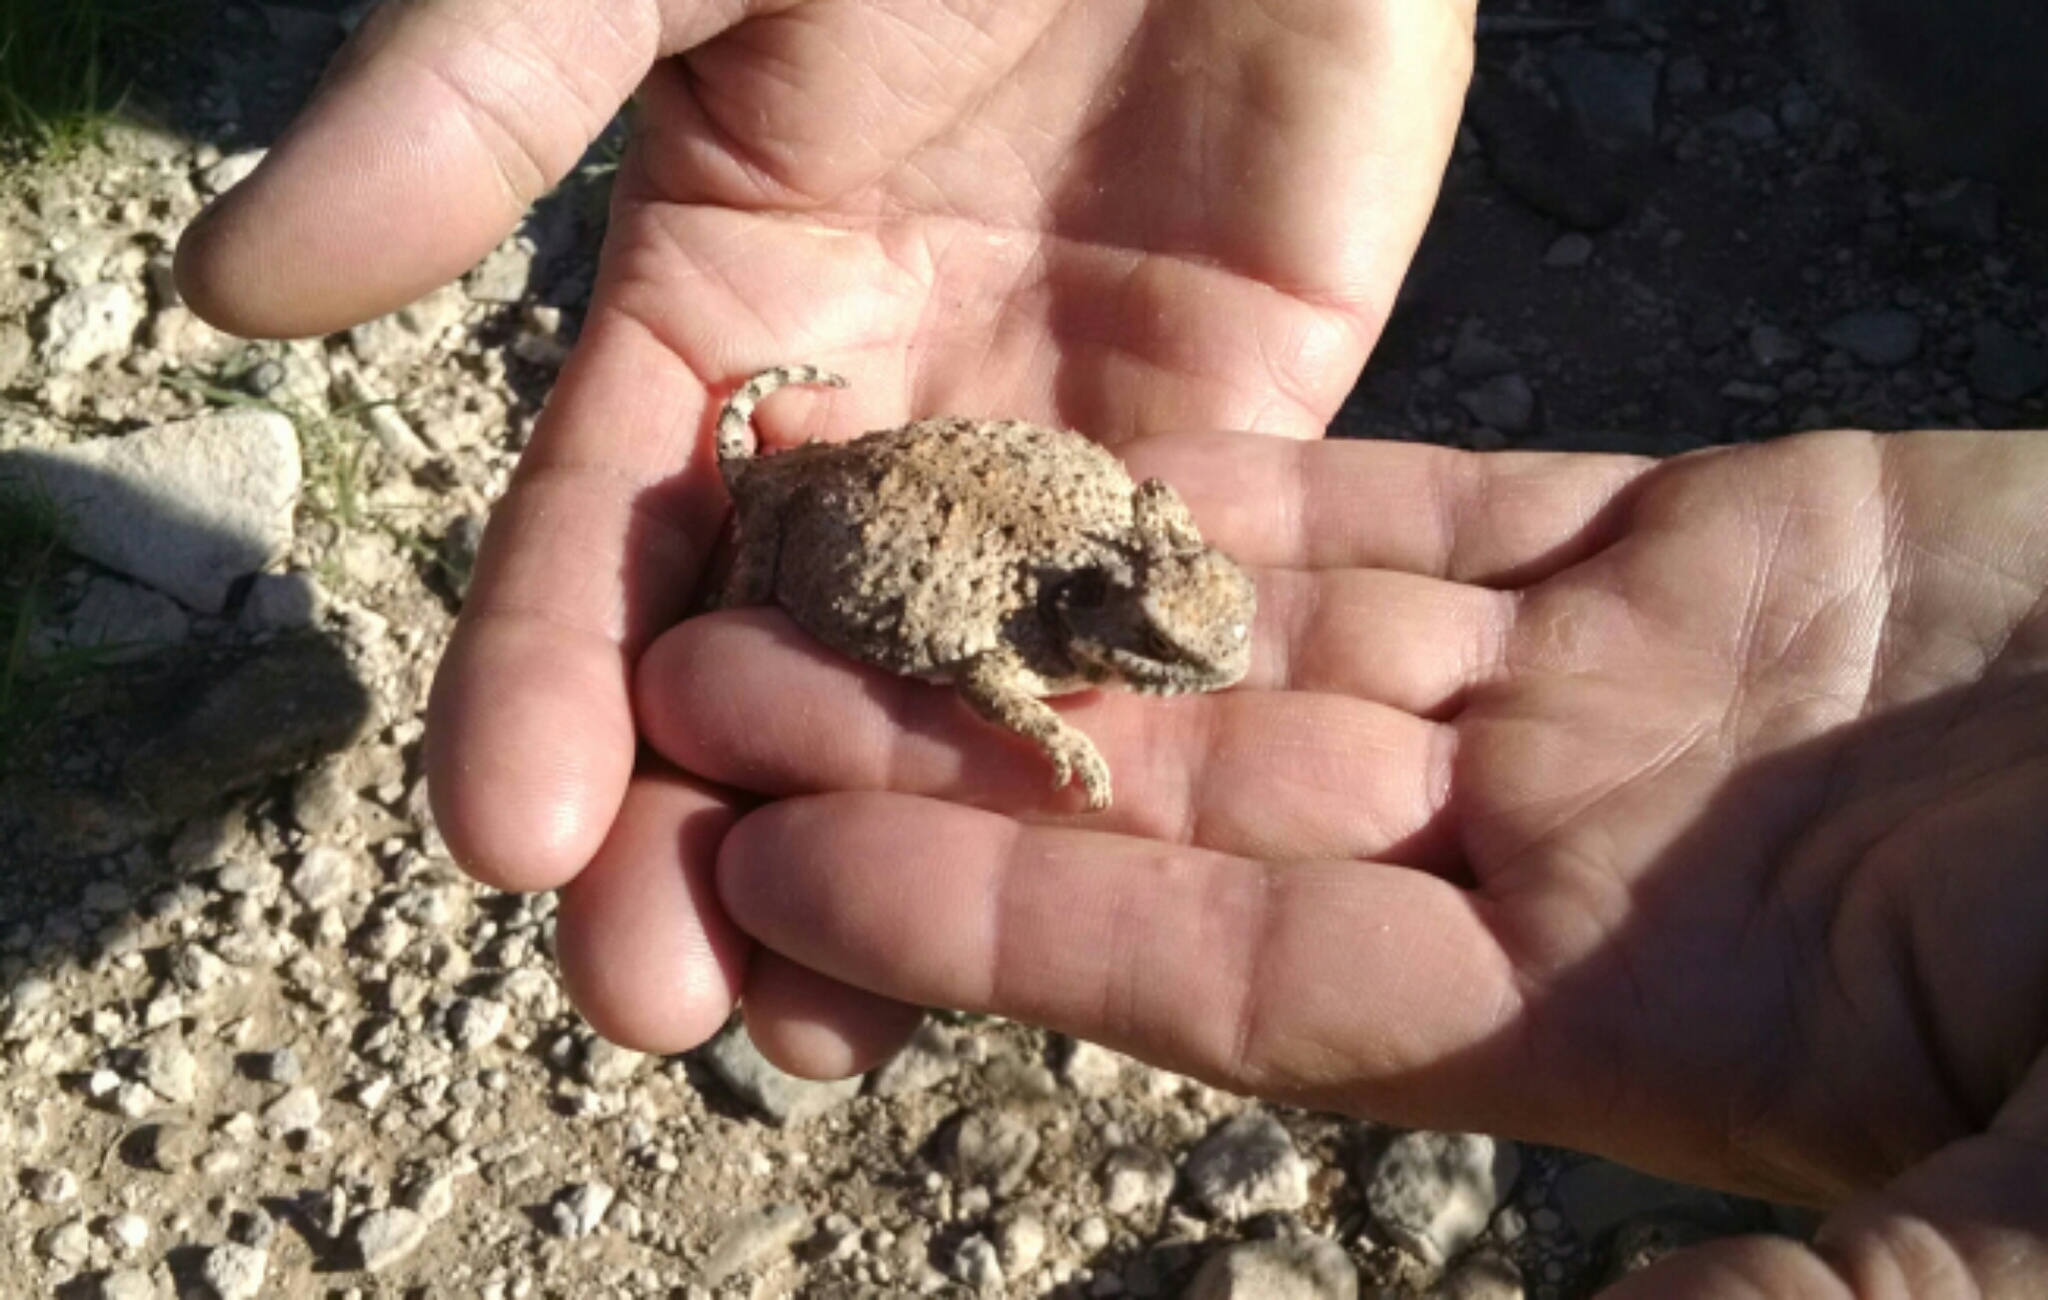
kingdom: Animalia
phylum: Chordata
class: Squamata
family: Phrynosomatidae
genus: Phrynosoma
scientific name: Phrynosoma modestum
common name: Roundtail horned lizard
